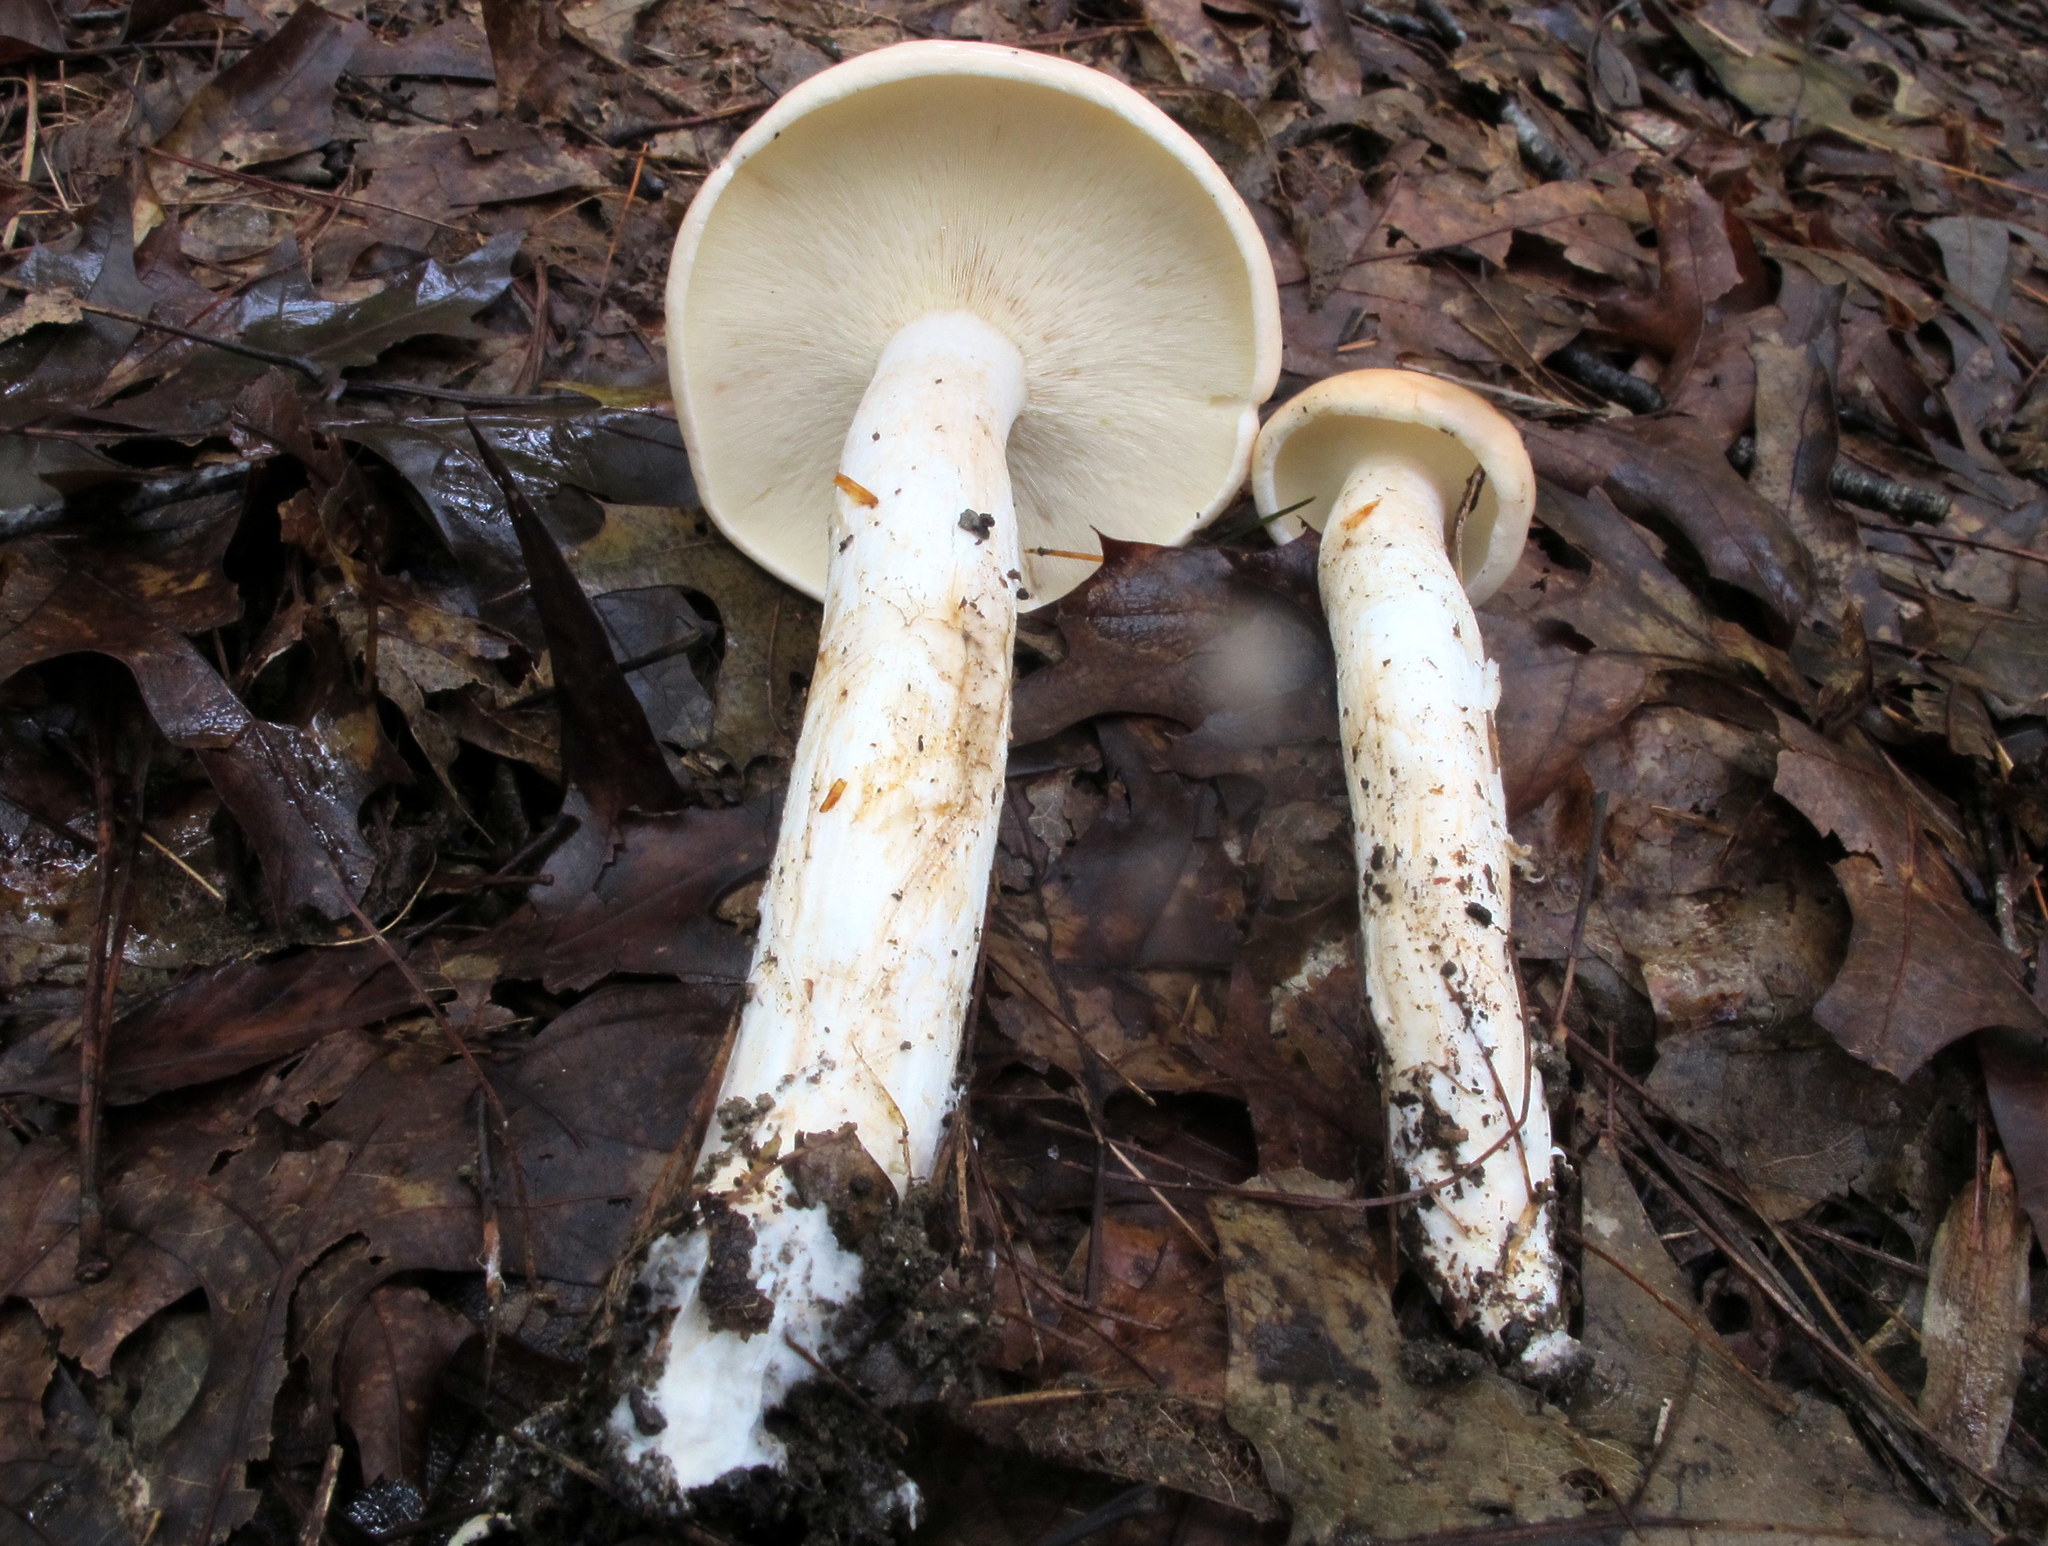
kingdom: Fungi
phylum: Basidiomycota
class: Agaricomycetes
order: Agaricales
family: Omphalotaceae
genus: Rhodocollybia
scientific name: Rhodocollybia maculata
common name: Spotted tough-shank
